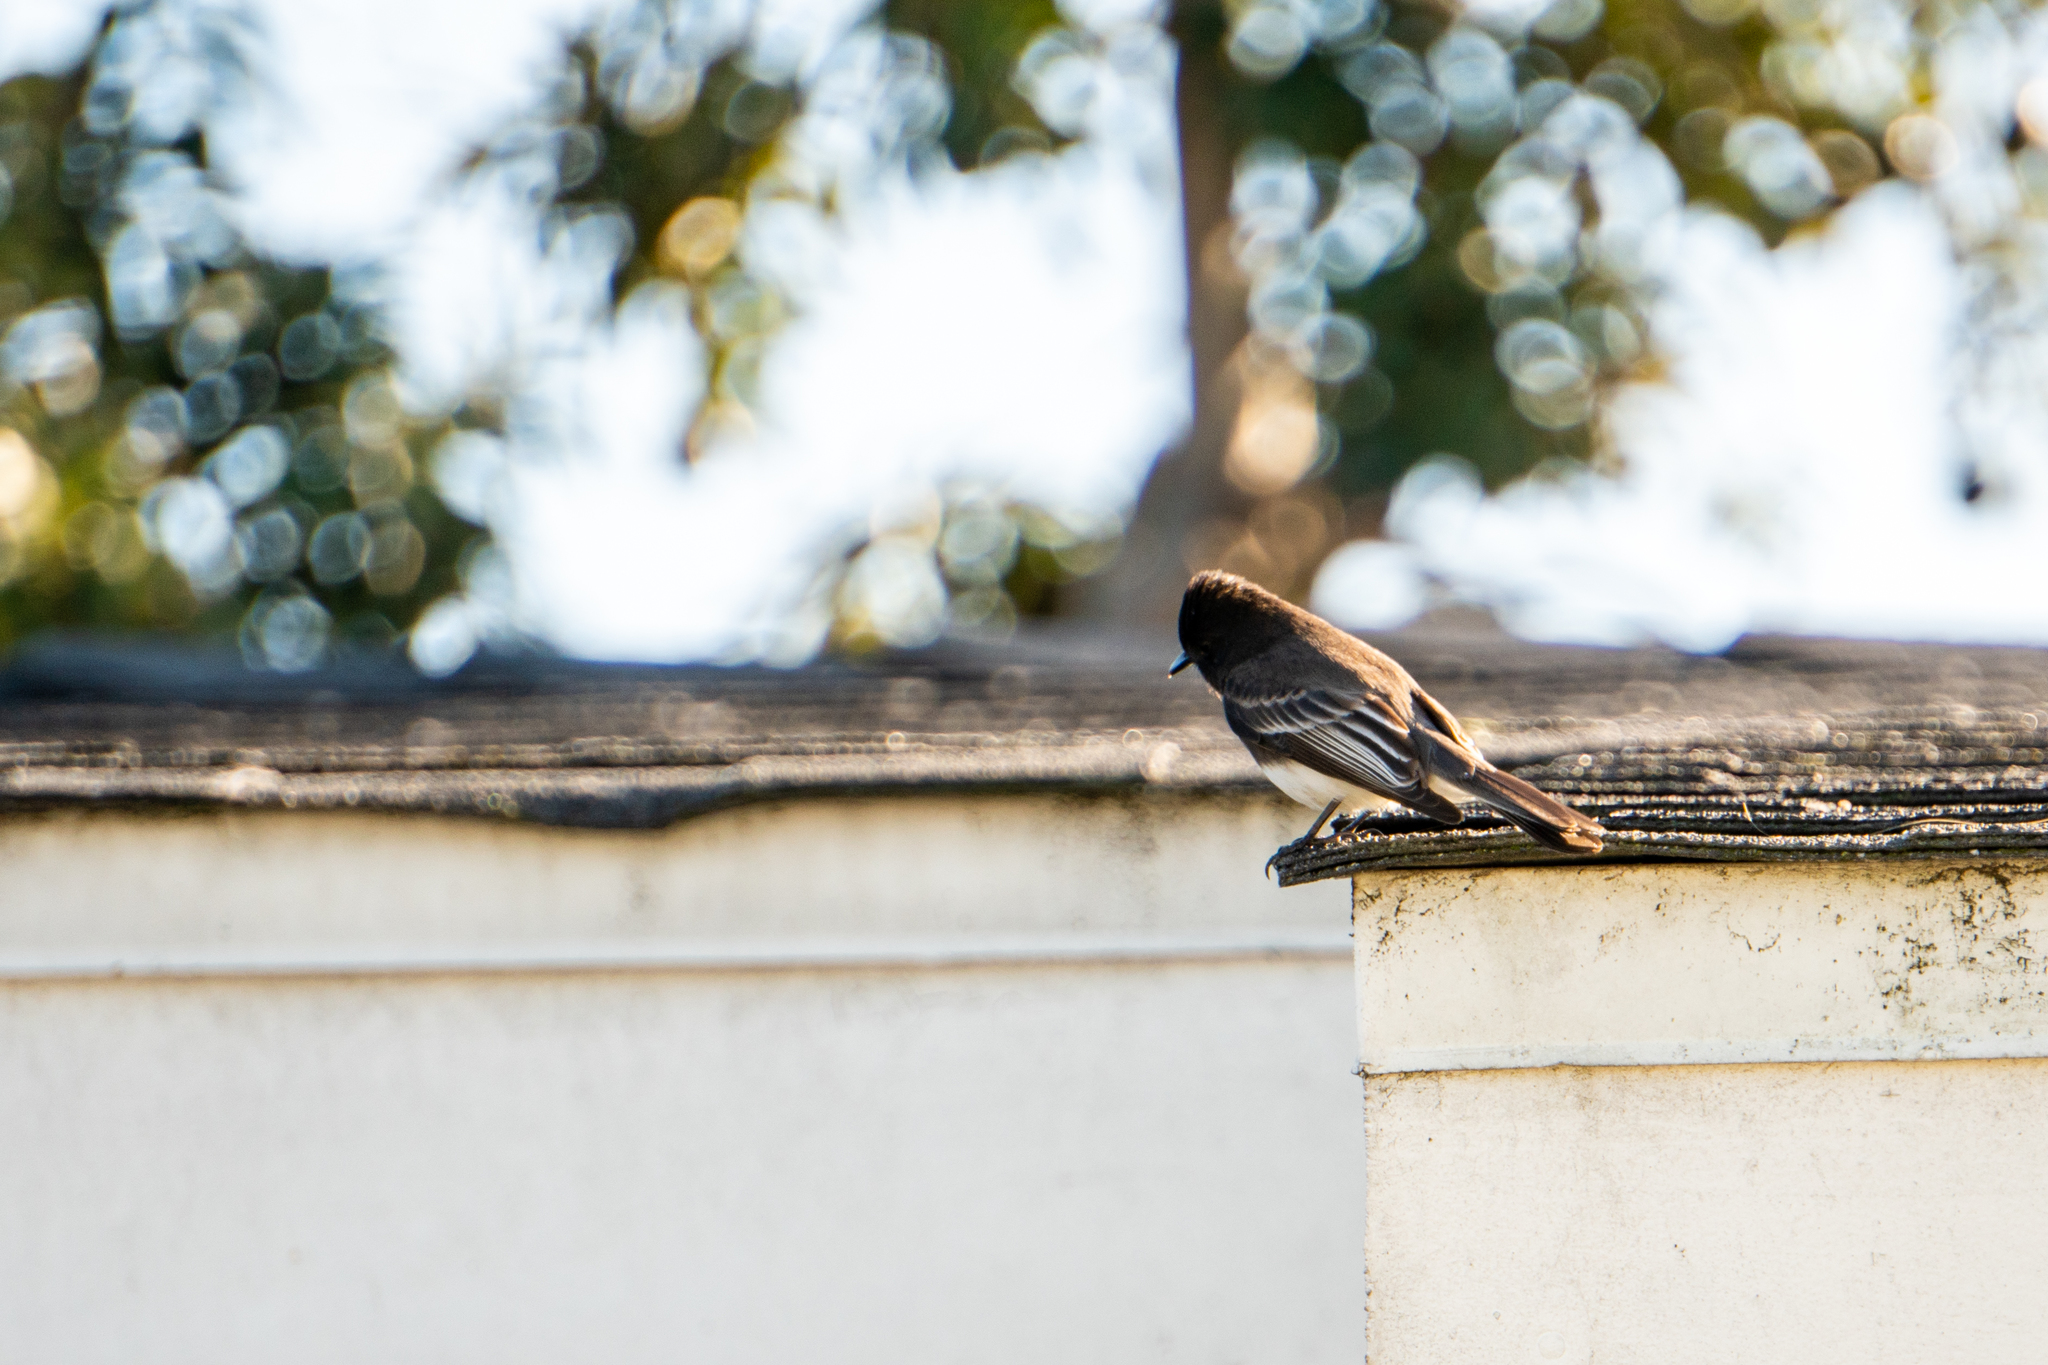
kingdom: Animalia
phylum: Chordata
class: Aves
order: Passeriformes
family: Tyrannidae
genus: Sayornis
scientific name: Sayornis nigricans
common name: Black phoebe
